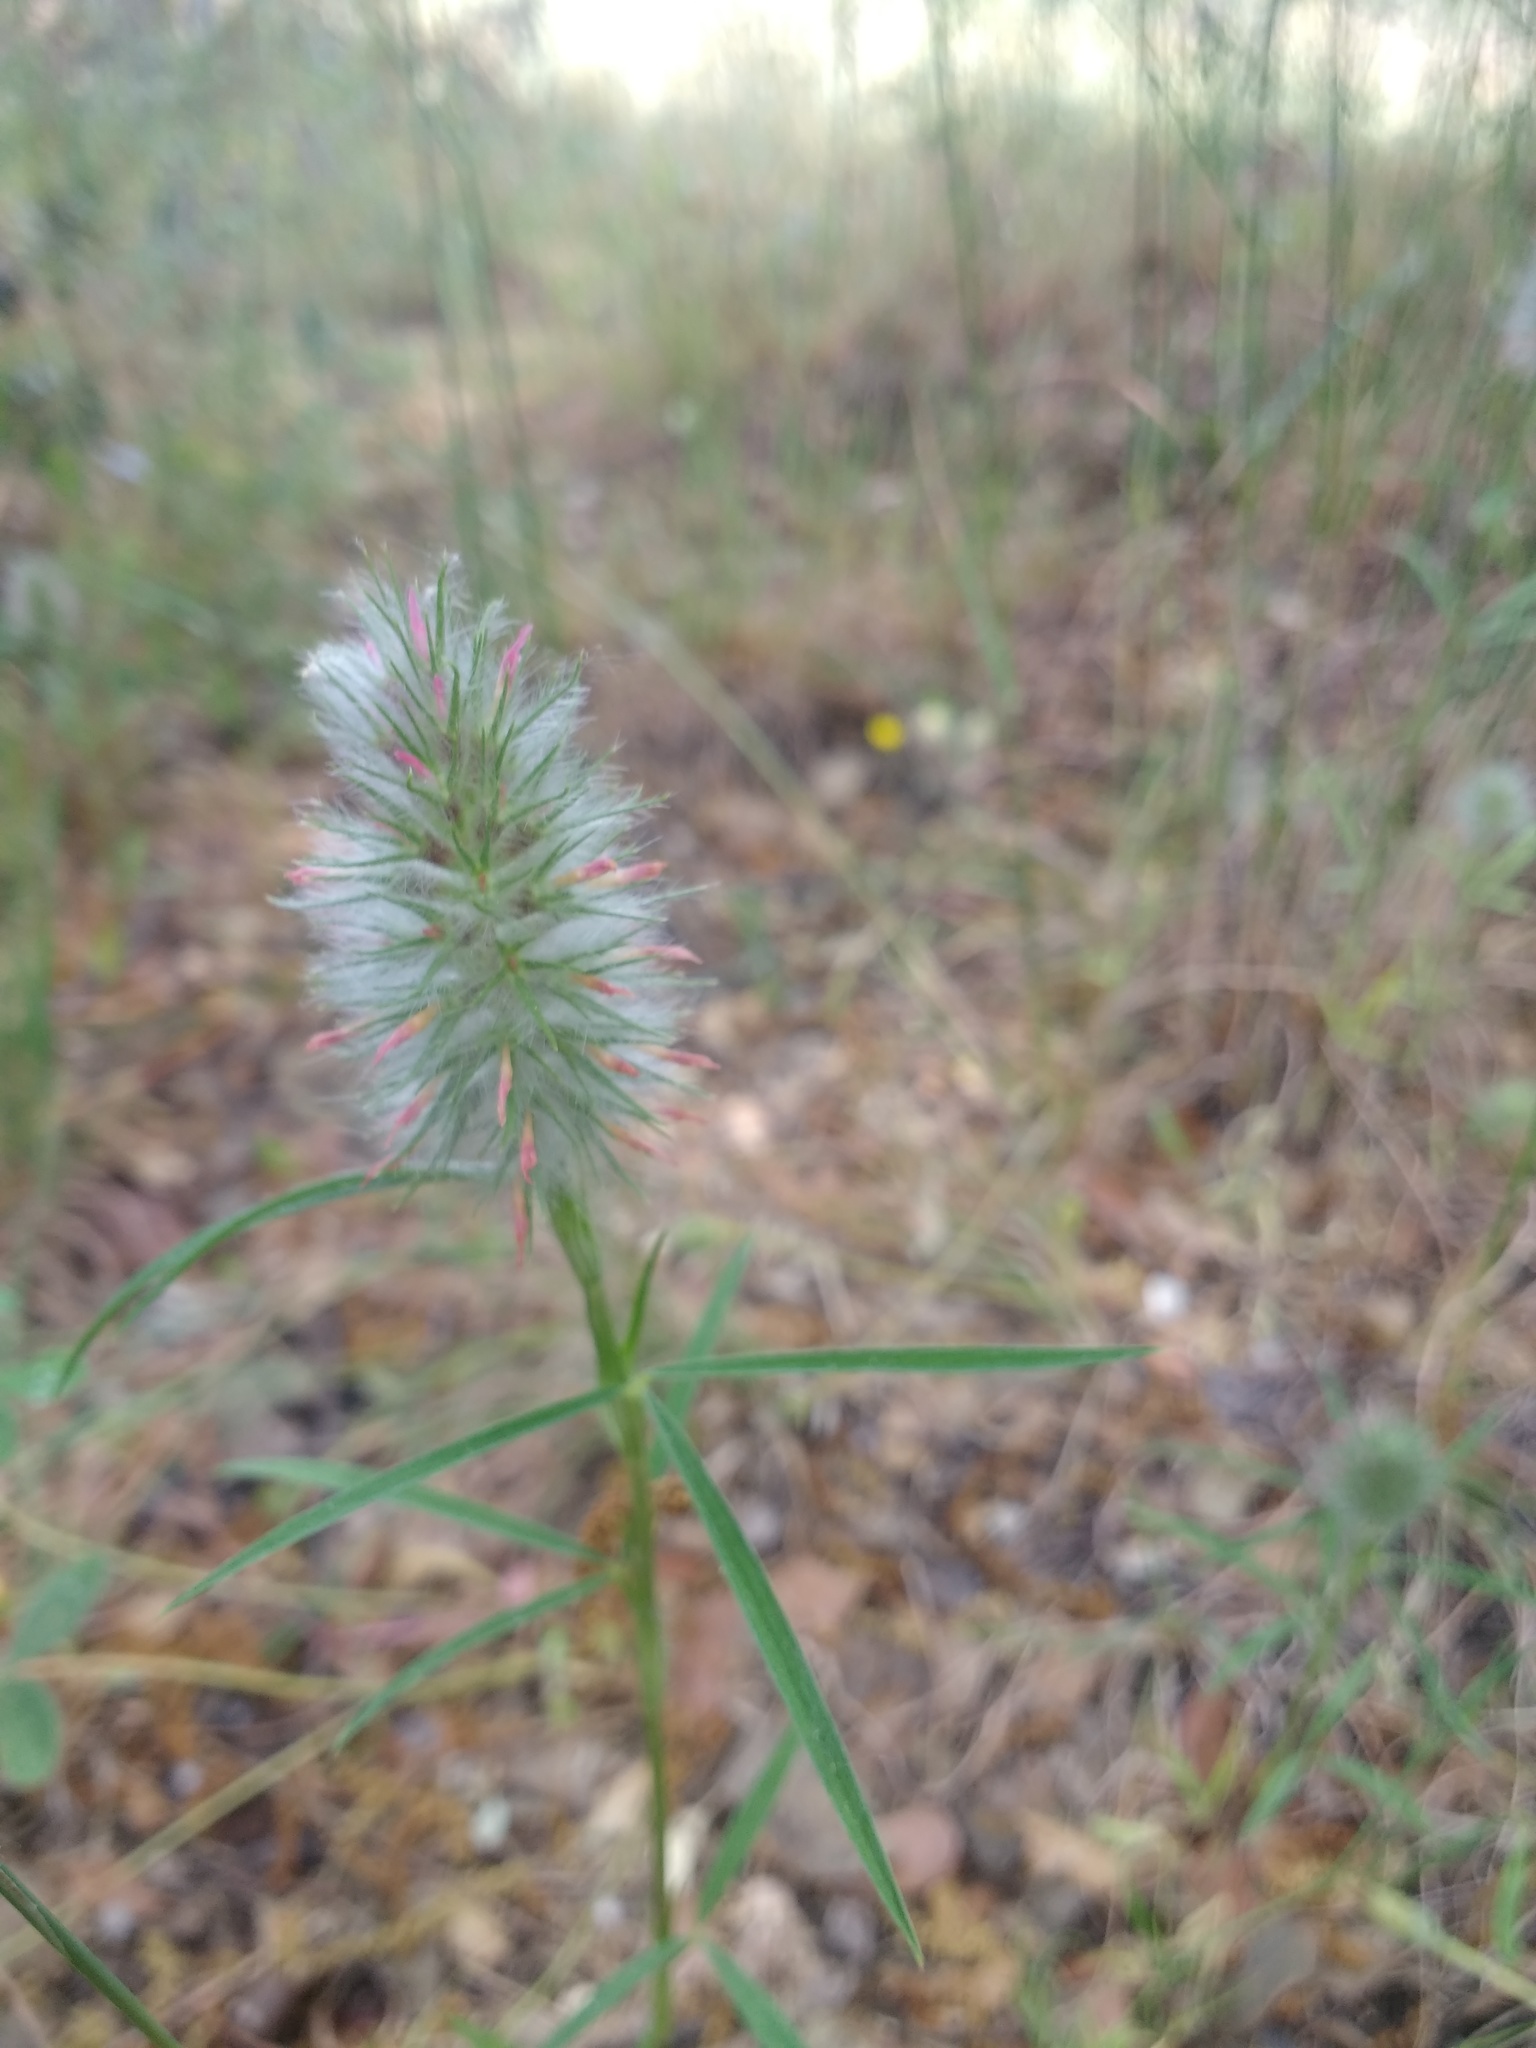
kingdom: Plantae
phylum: Tracheophyta
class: Magnoliopsida
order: Fabales
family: Fabaceae
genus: Trifolium
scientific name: Trifolium angustifolium
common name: Narrow clover
